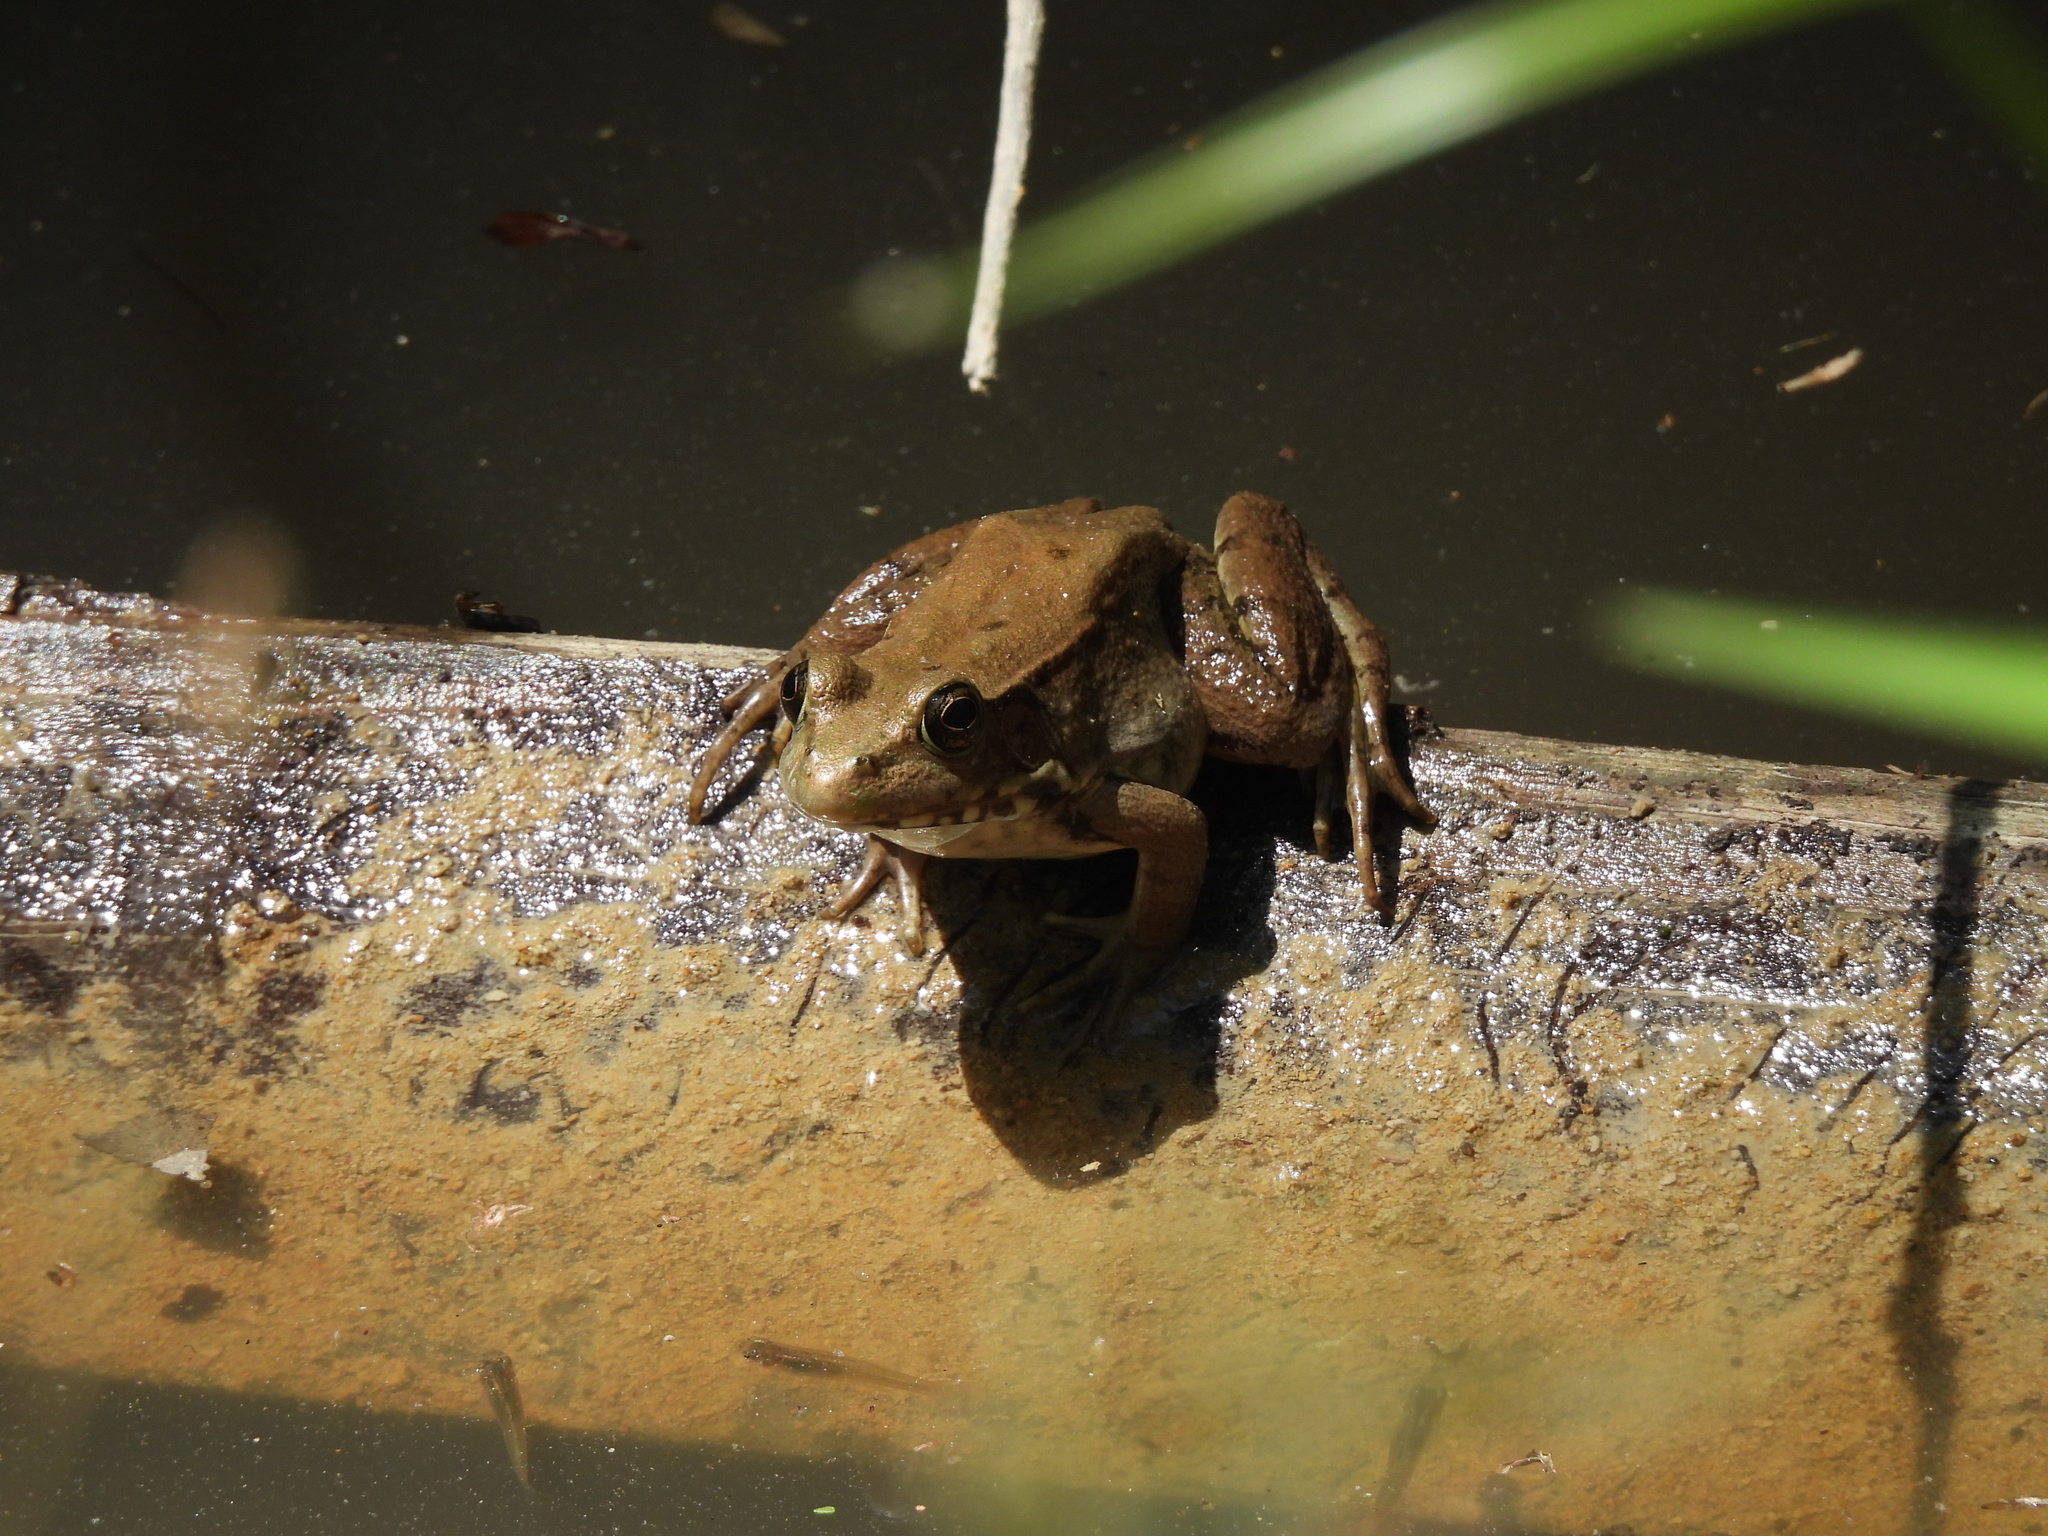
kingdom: Animalia
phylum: Chordata
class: Amphibia
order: Anura
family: Ranidae
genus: Lithobates
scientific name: Lithobates clamitans
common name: Green frog
